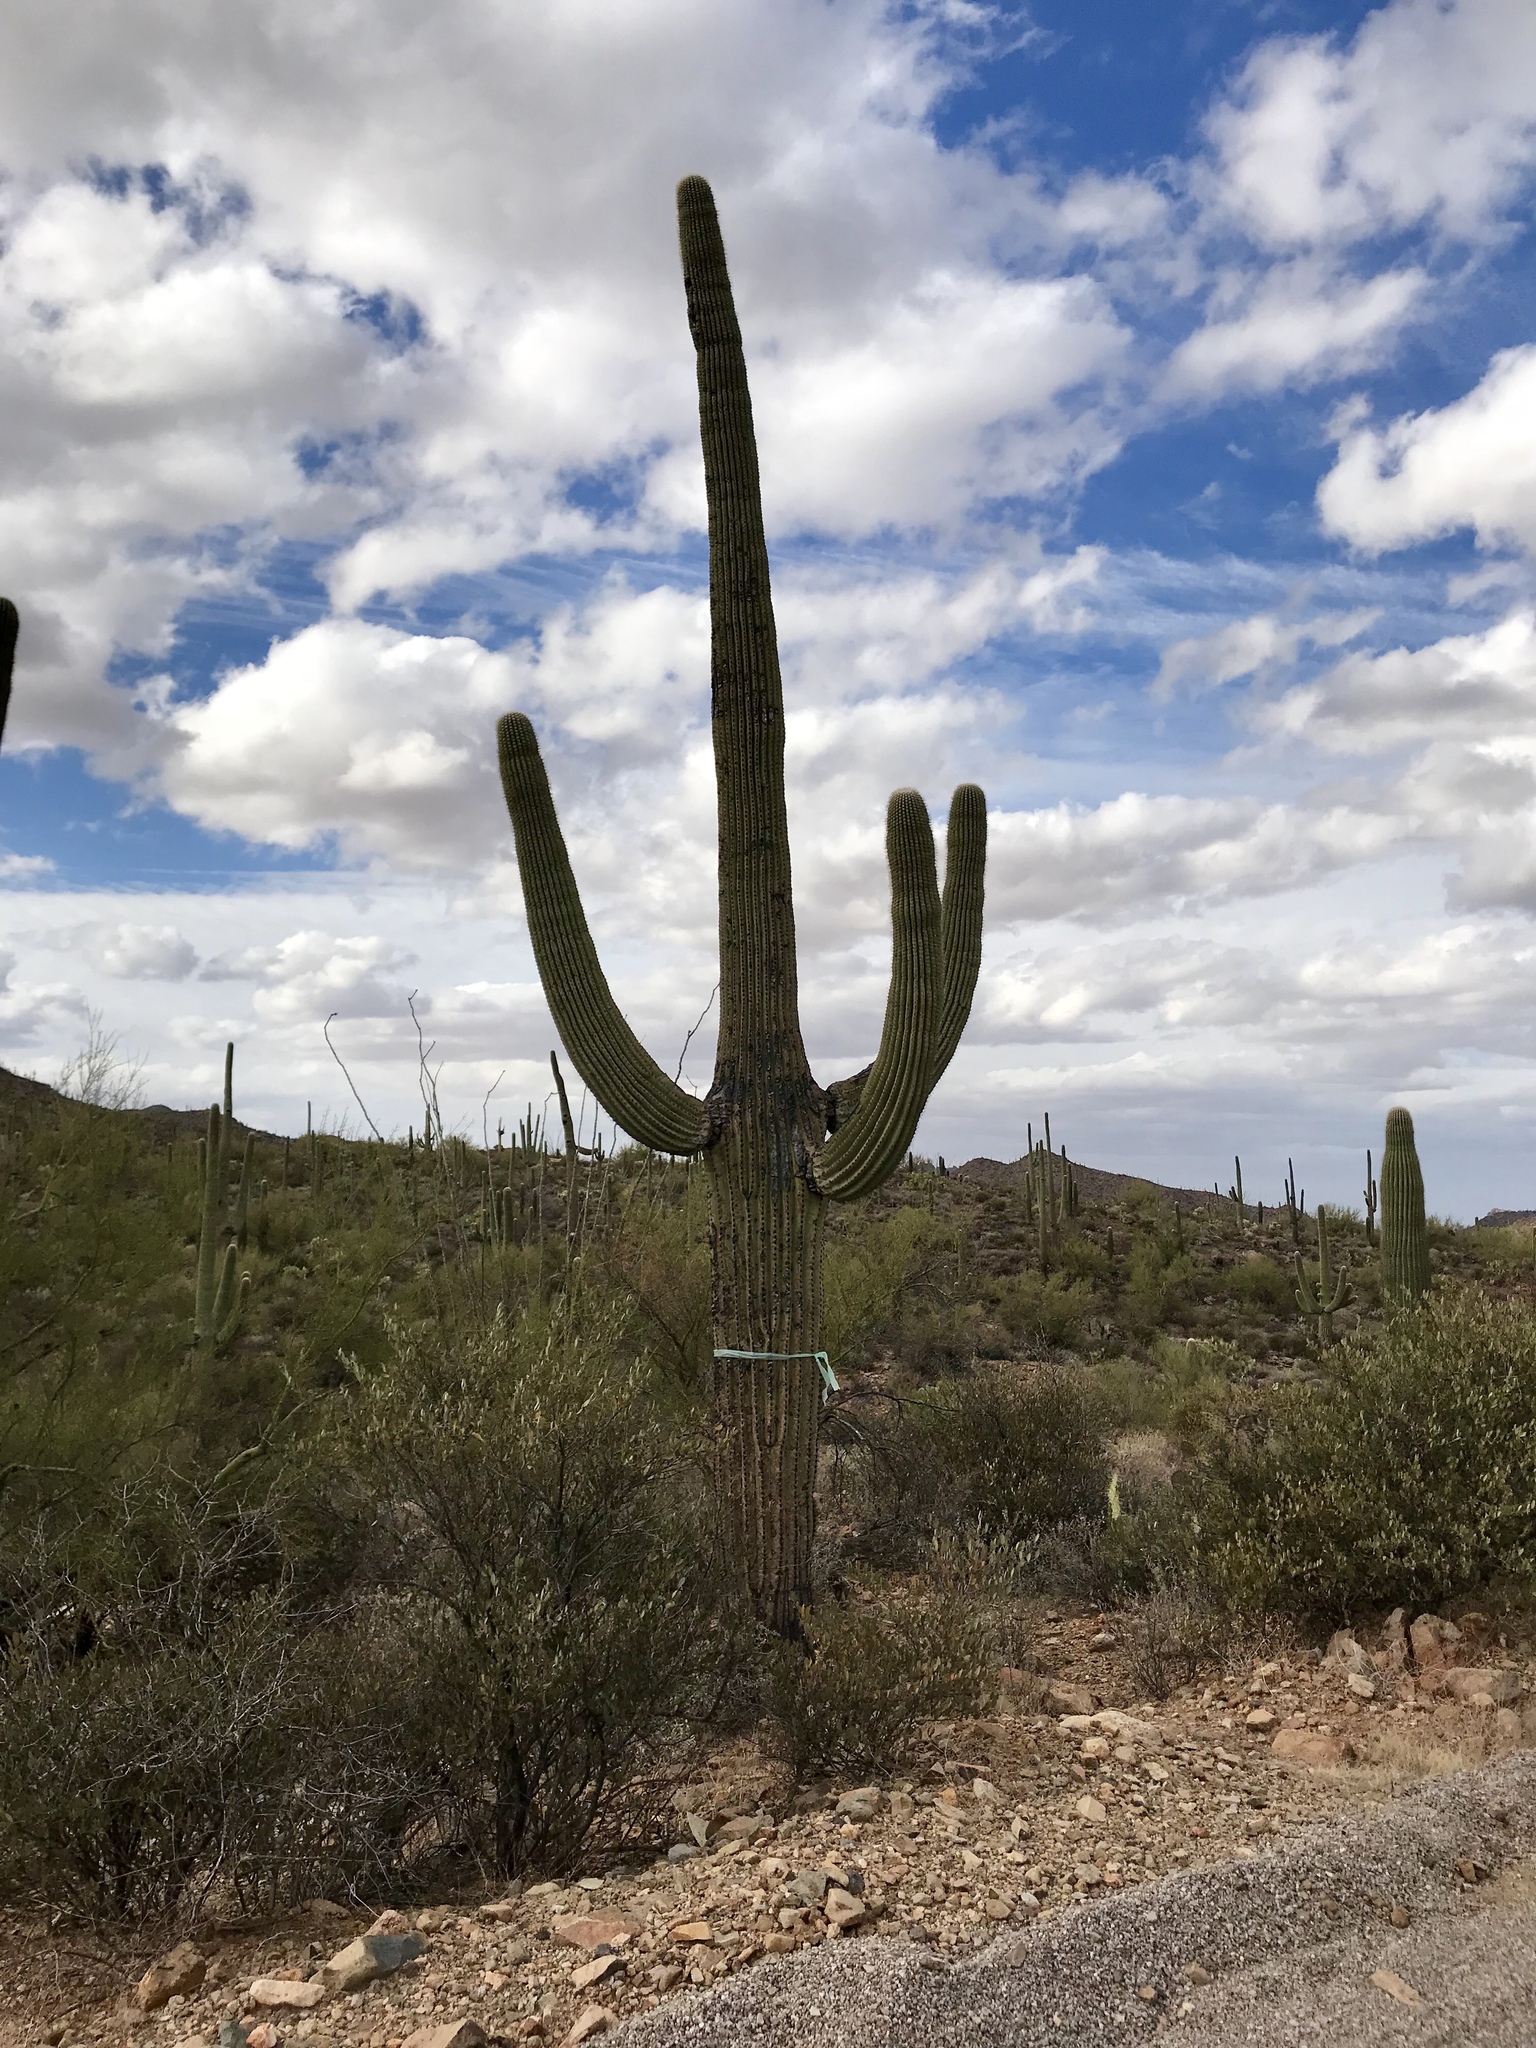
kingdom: Plantae
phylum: Tracheophyta
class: Magnoliopsida
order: Caryophyllales
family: Cactaceae
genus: Carnegiea
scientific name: Carnegiea gigantea
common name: Saguaro
